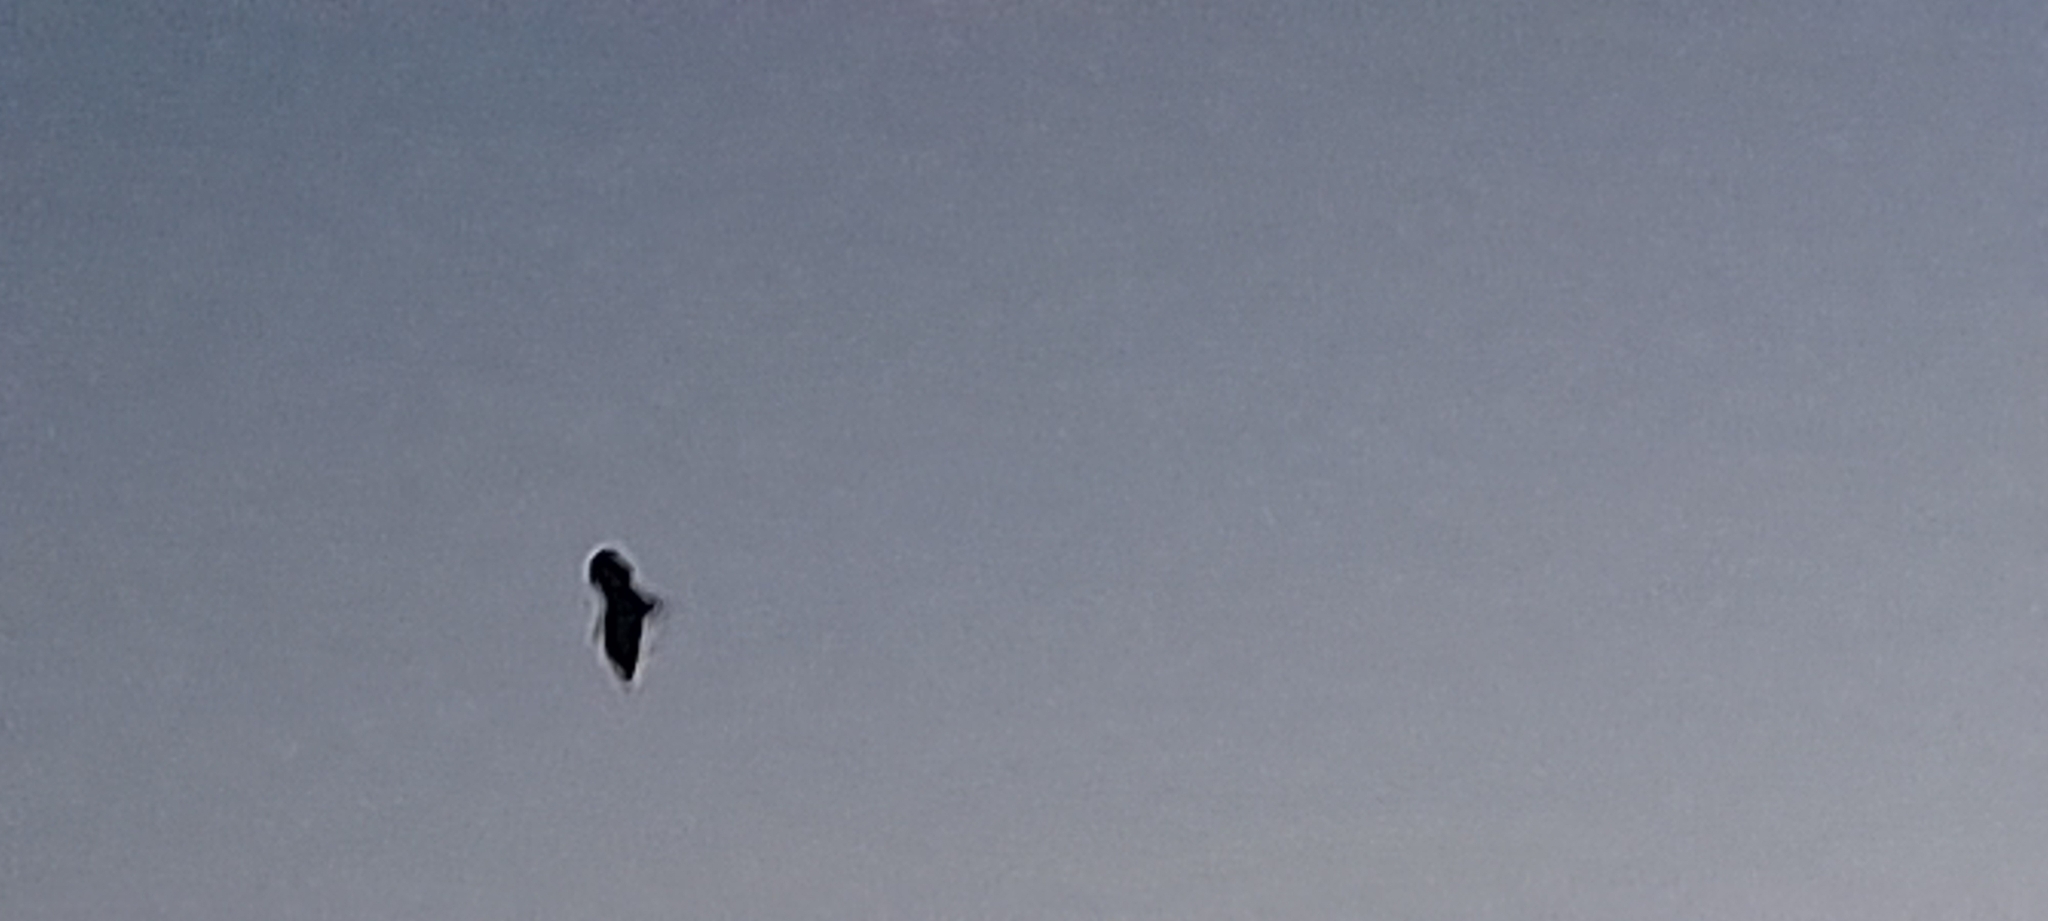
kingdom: Animalia
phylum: Chordata
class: Mammalia
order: Chiroptera
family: Pteropodidae
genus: Pteropus
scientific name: Pteropus vampyrus
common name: Large flying fox
